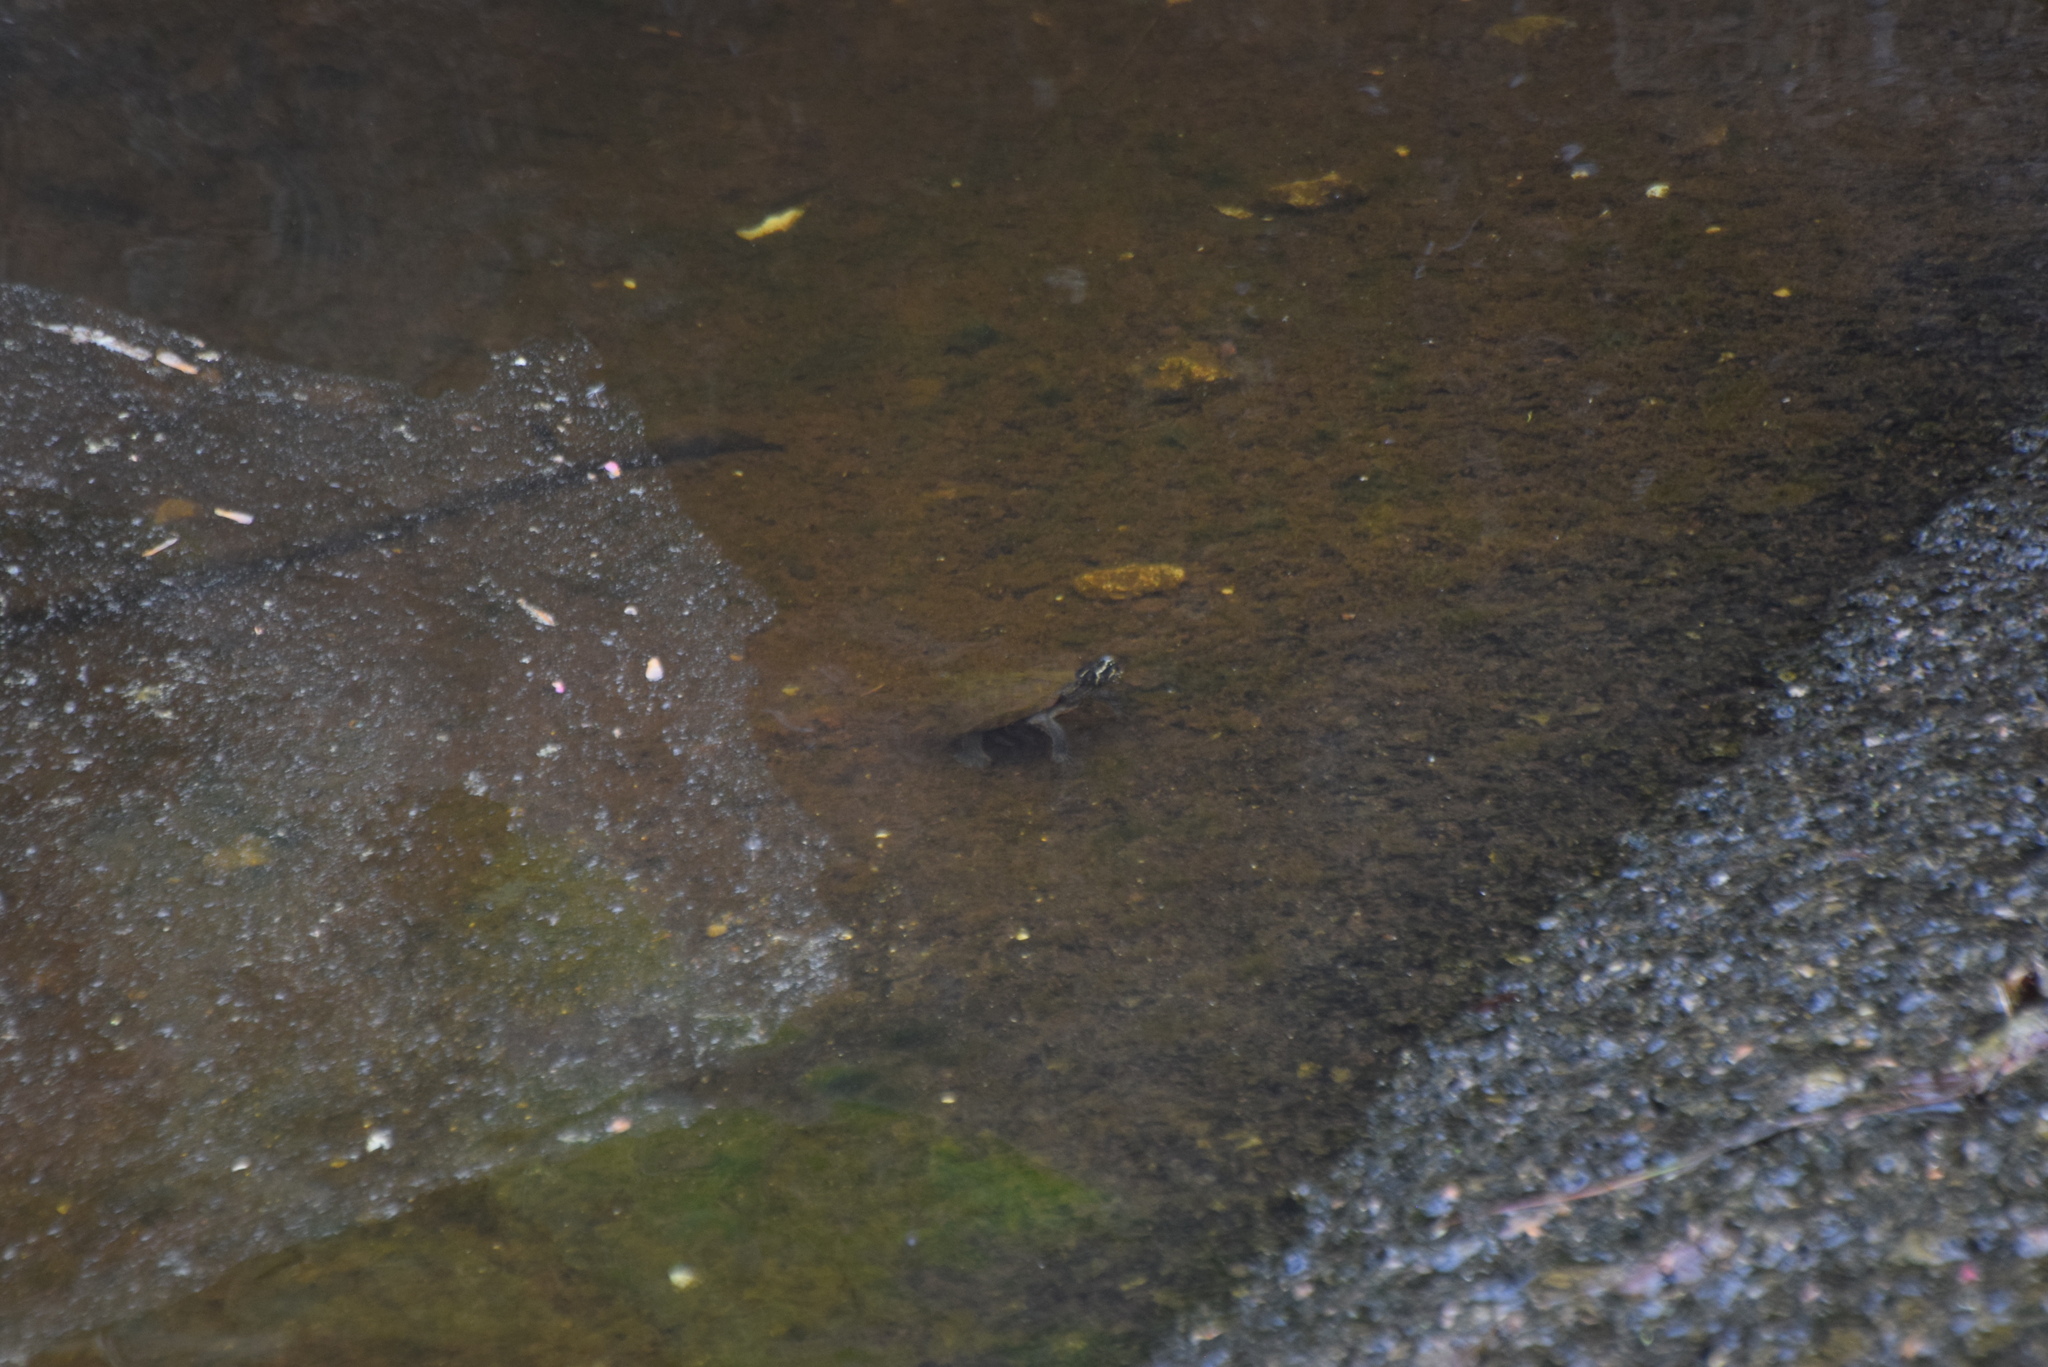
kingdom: Animalia
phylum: Chordata
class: Testudines
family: Kinosternidae
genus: Sternotherus
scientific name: Sternotherus odoratus
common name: Common musk turtle
